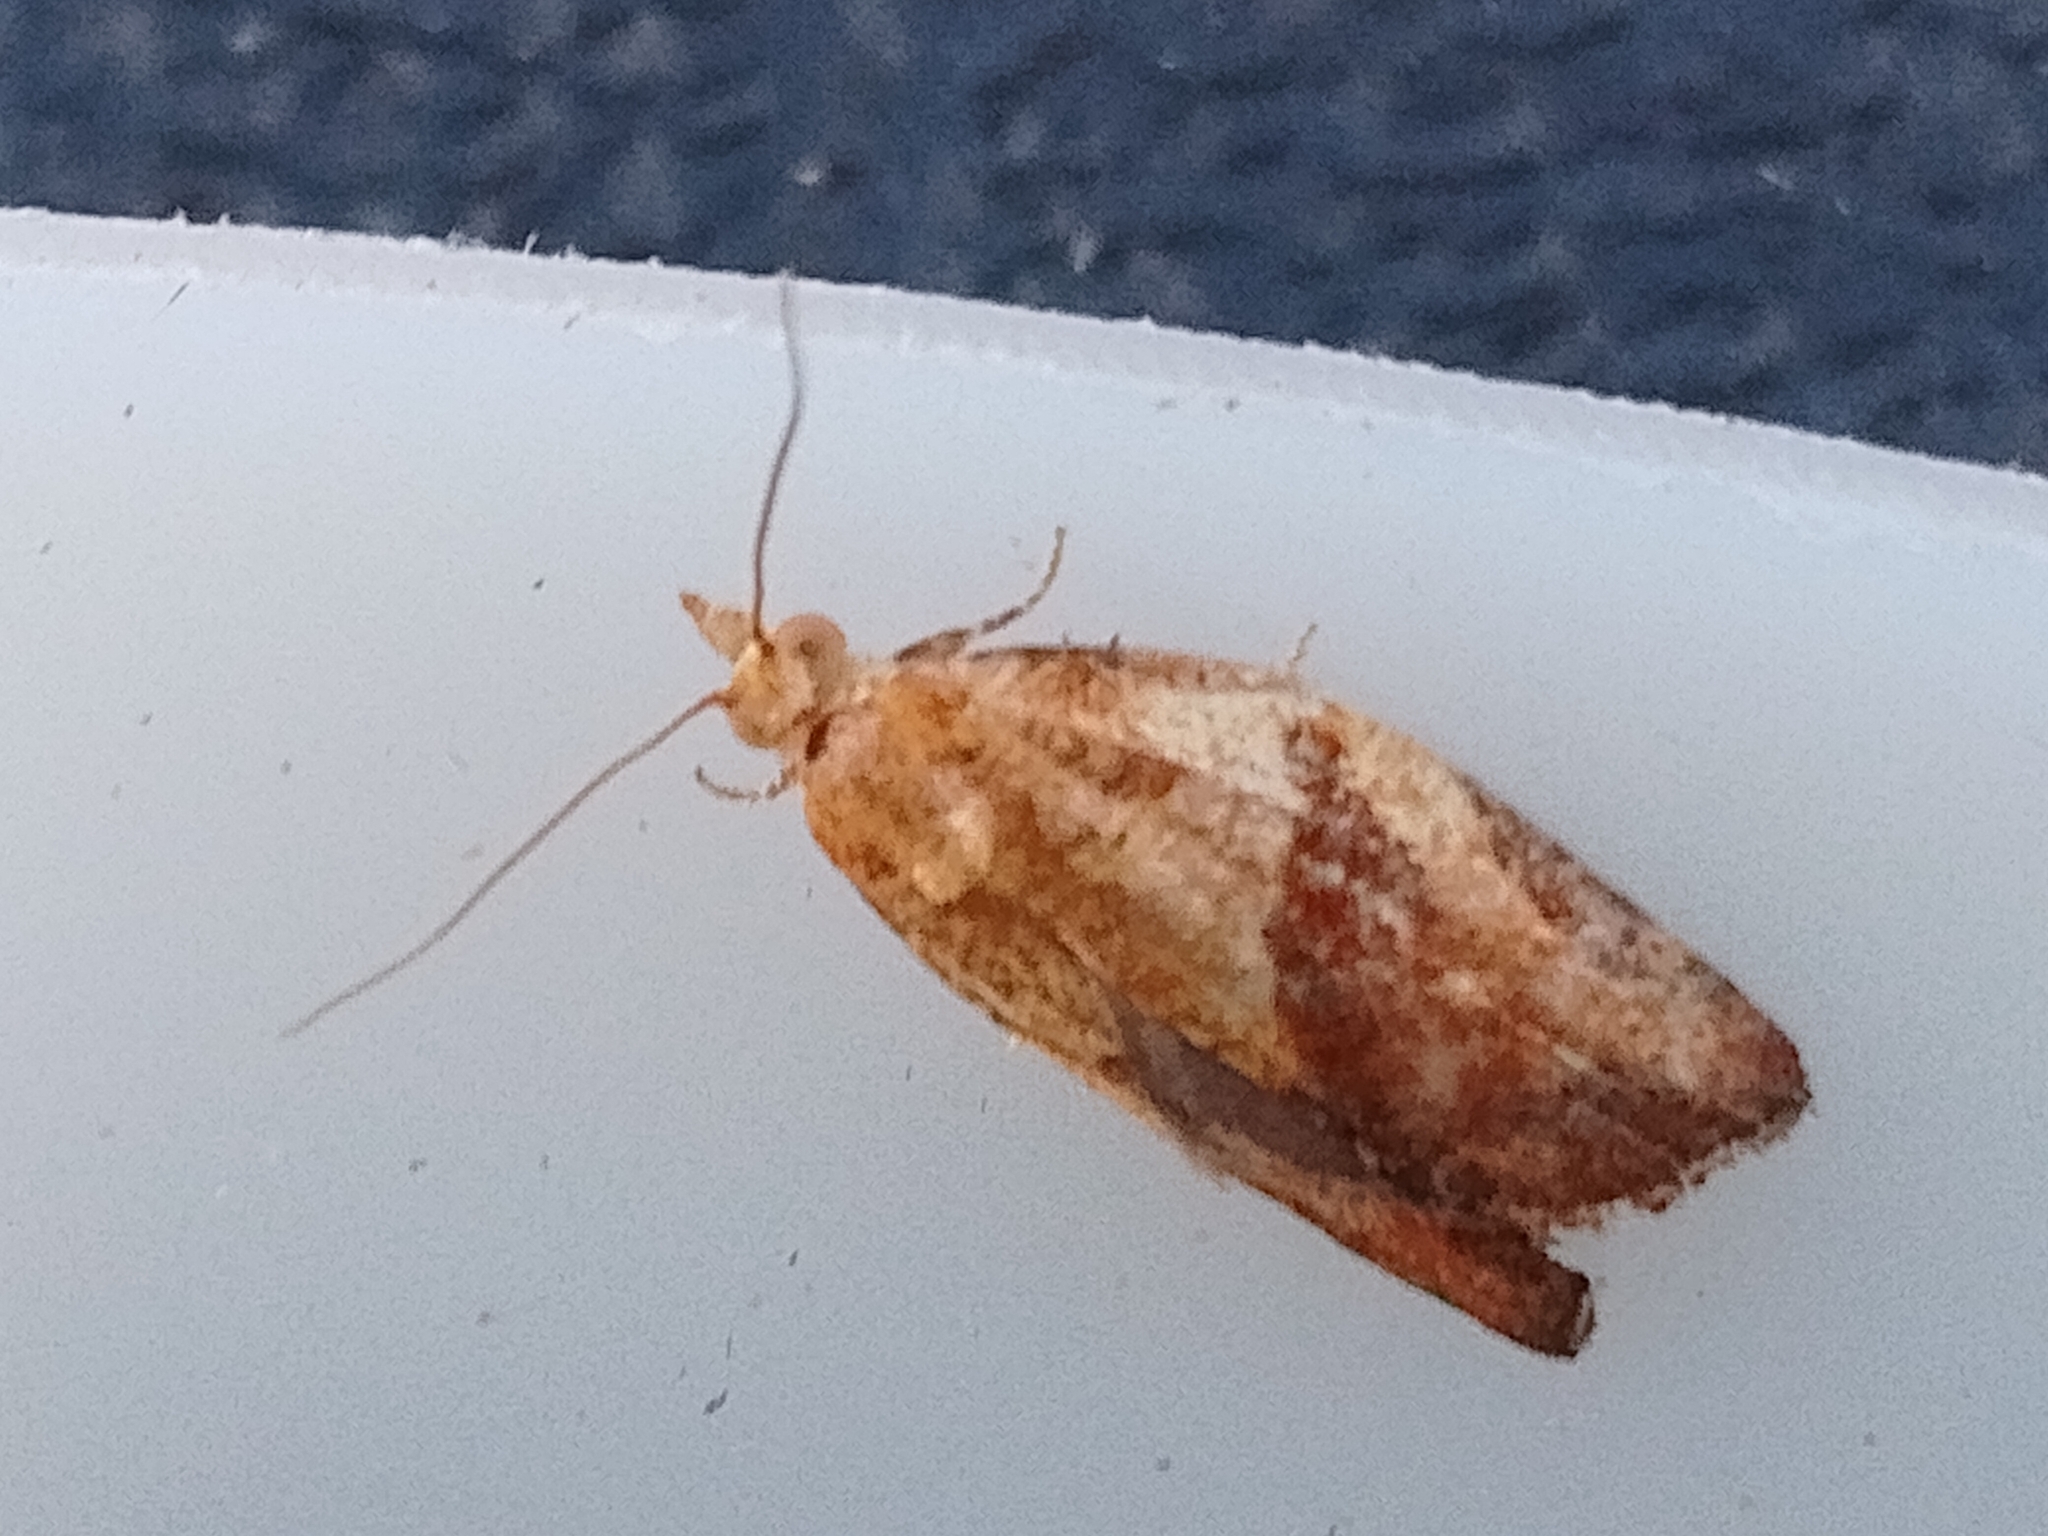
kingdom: Animalia
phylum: Arthropoda
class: Insecta
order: Lepidoptera
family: Tortricidae
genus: Epiphyas
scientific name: Epiphyas postvittana
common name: Light brown apple moth
